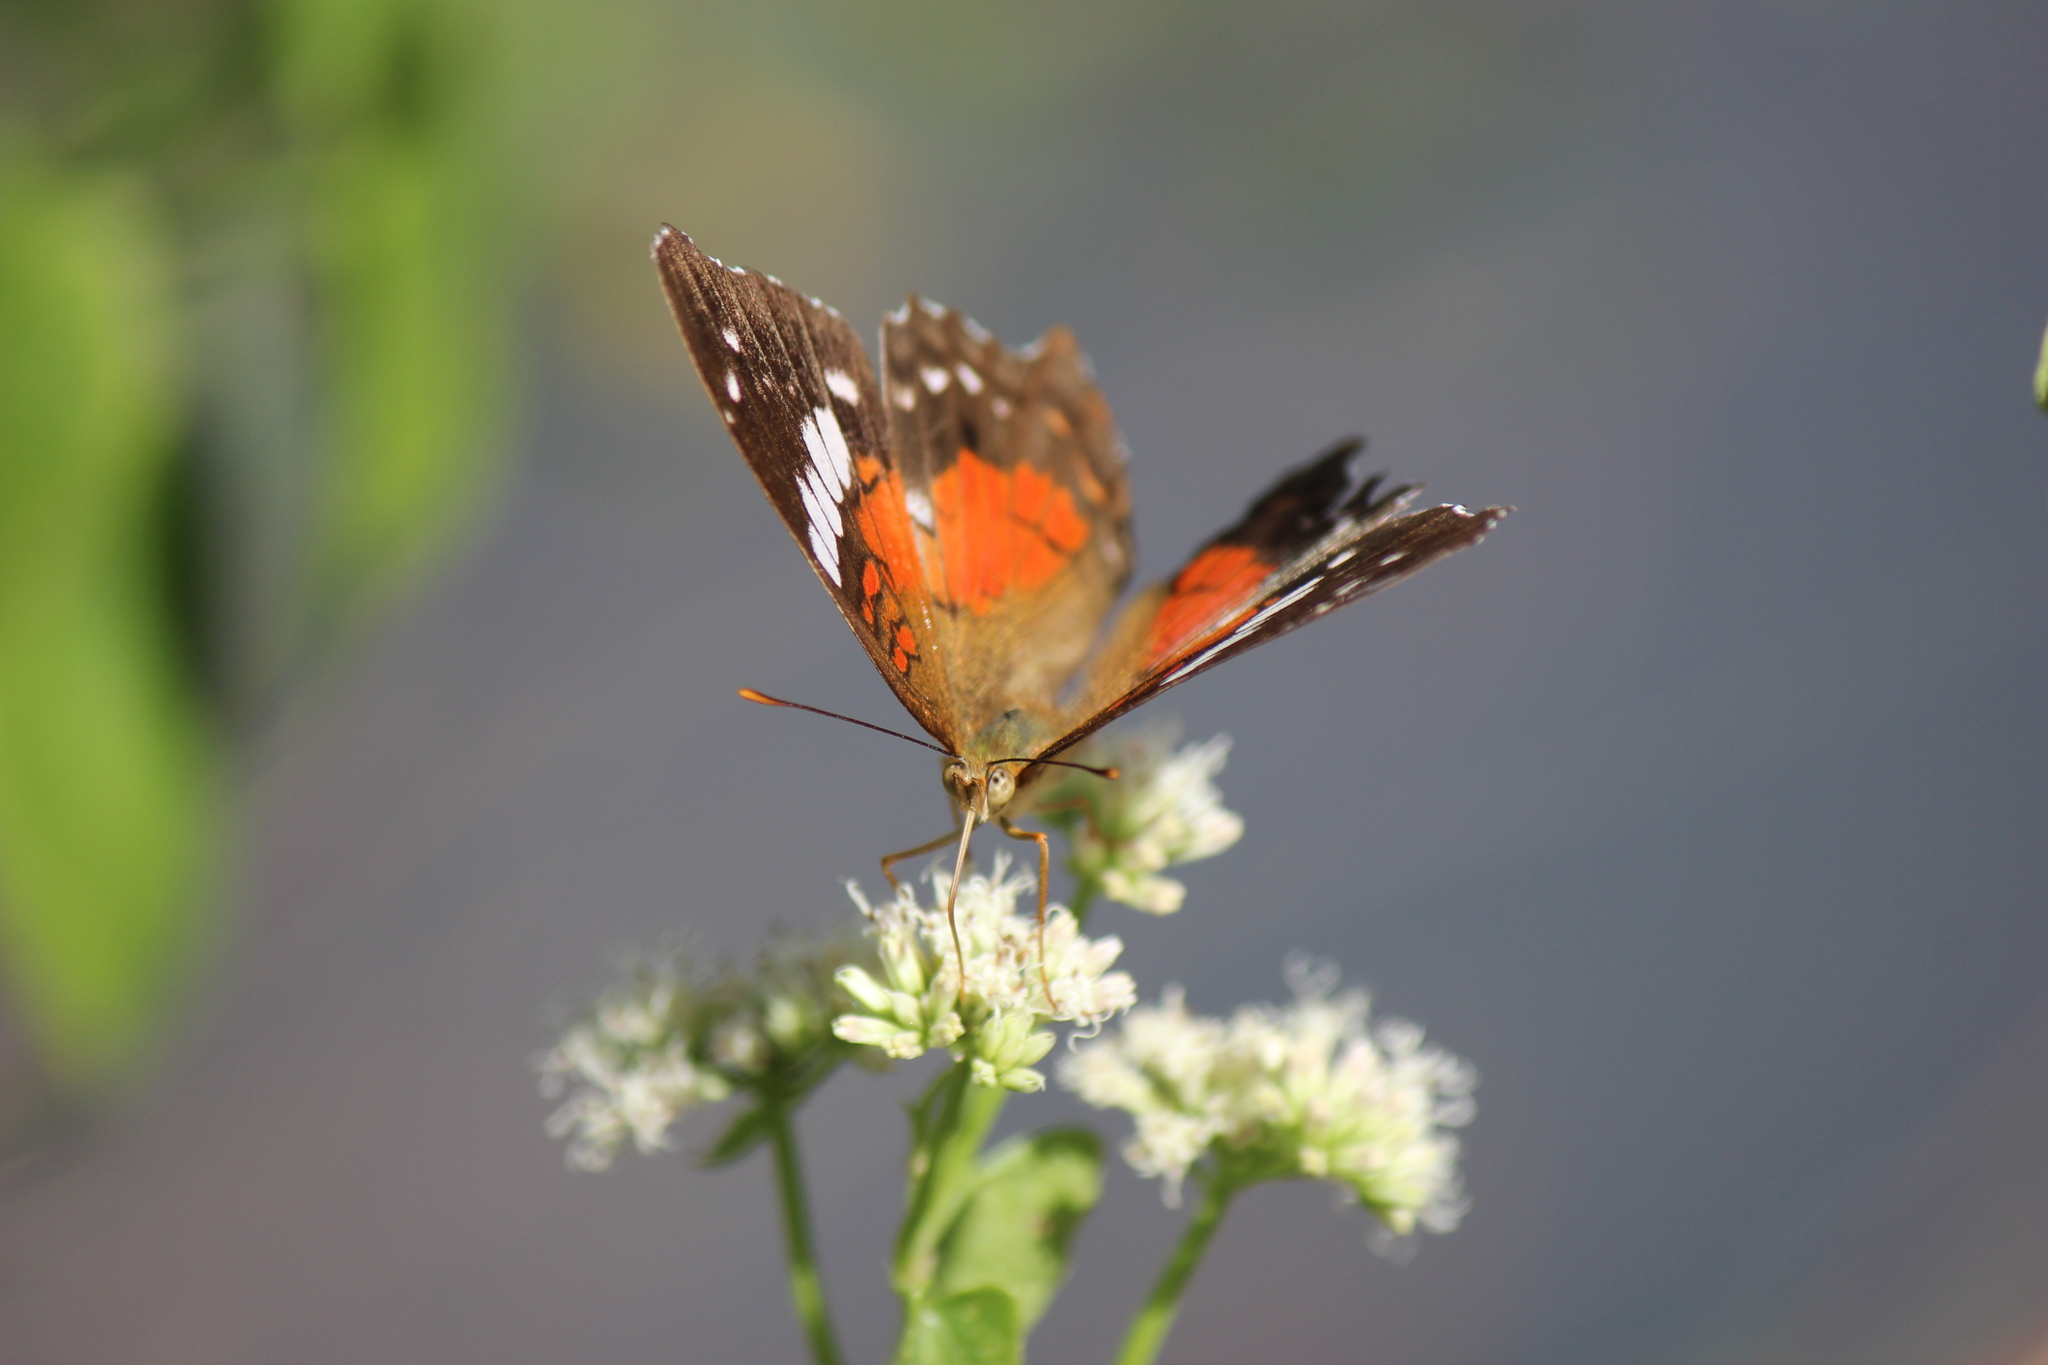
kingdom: Animalia
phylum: Arthropoda
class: Insecta
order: Lepidoptera
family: Nymphalidae
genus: Anartia
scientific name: Anartia amathea
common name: Red peacock
